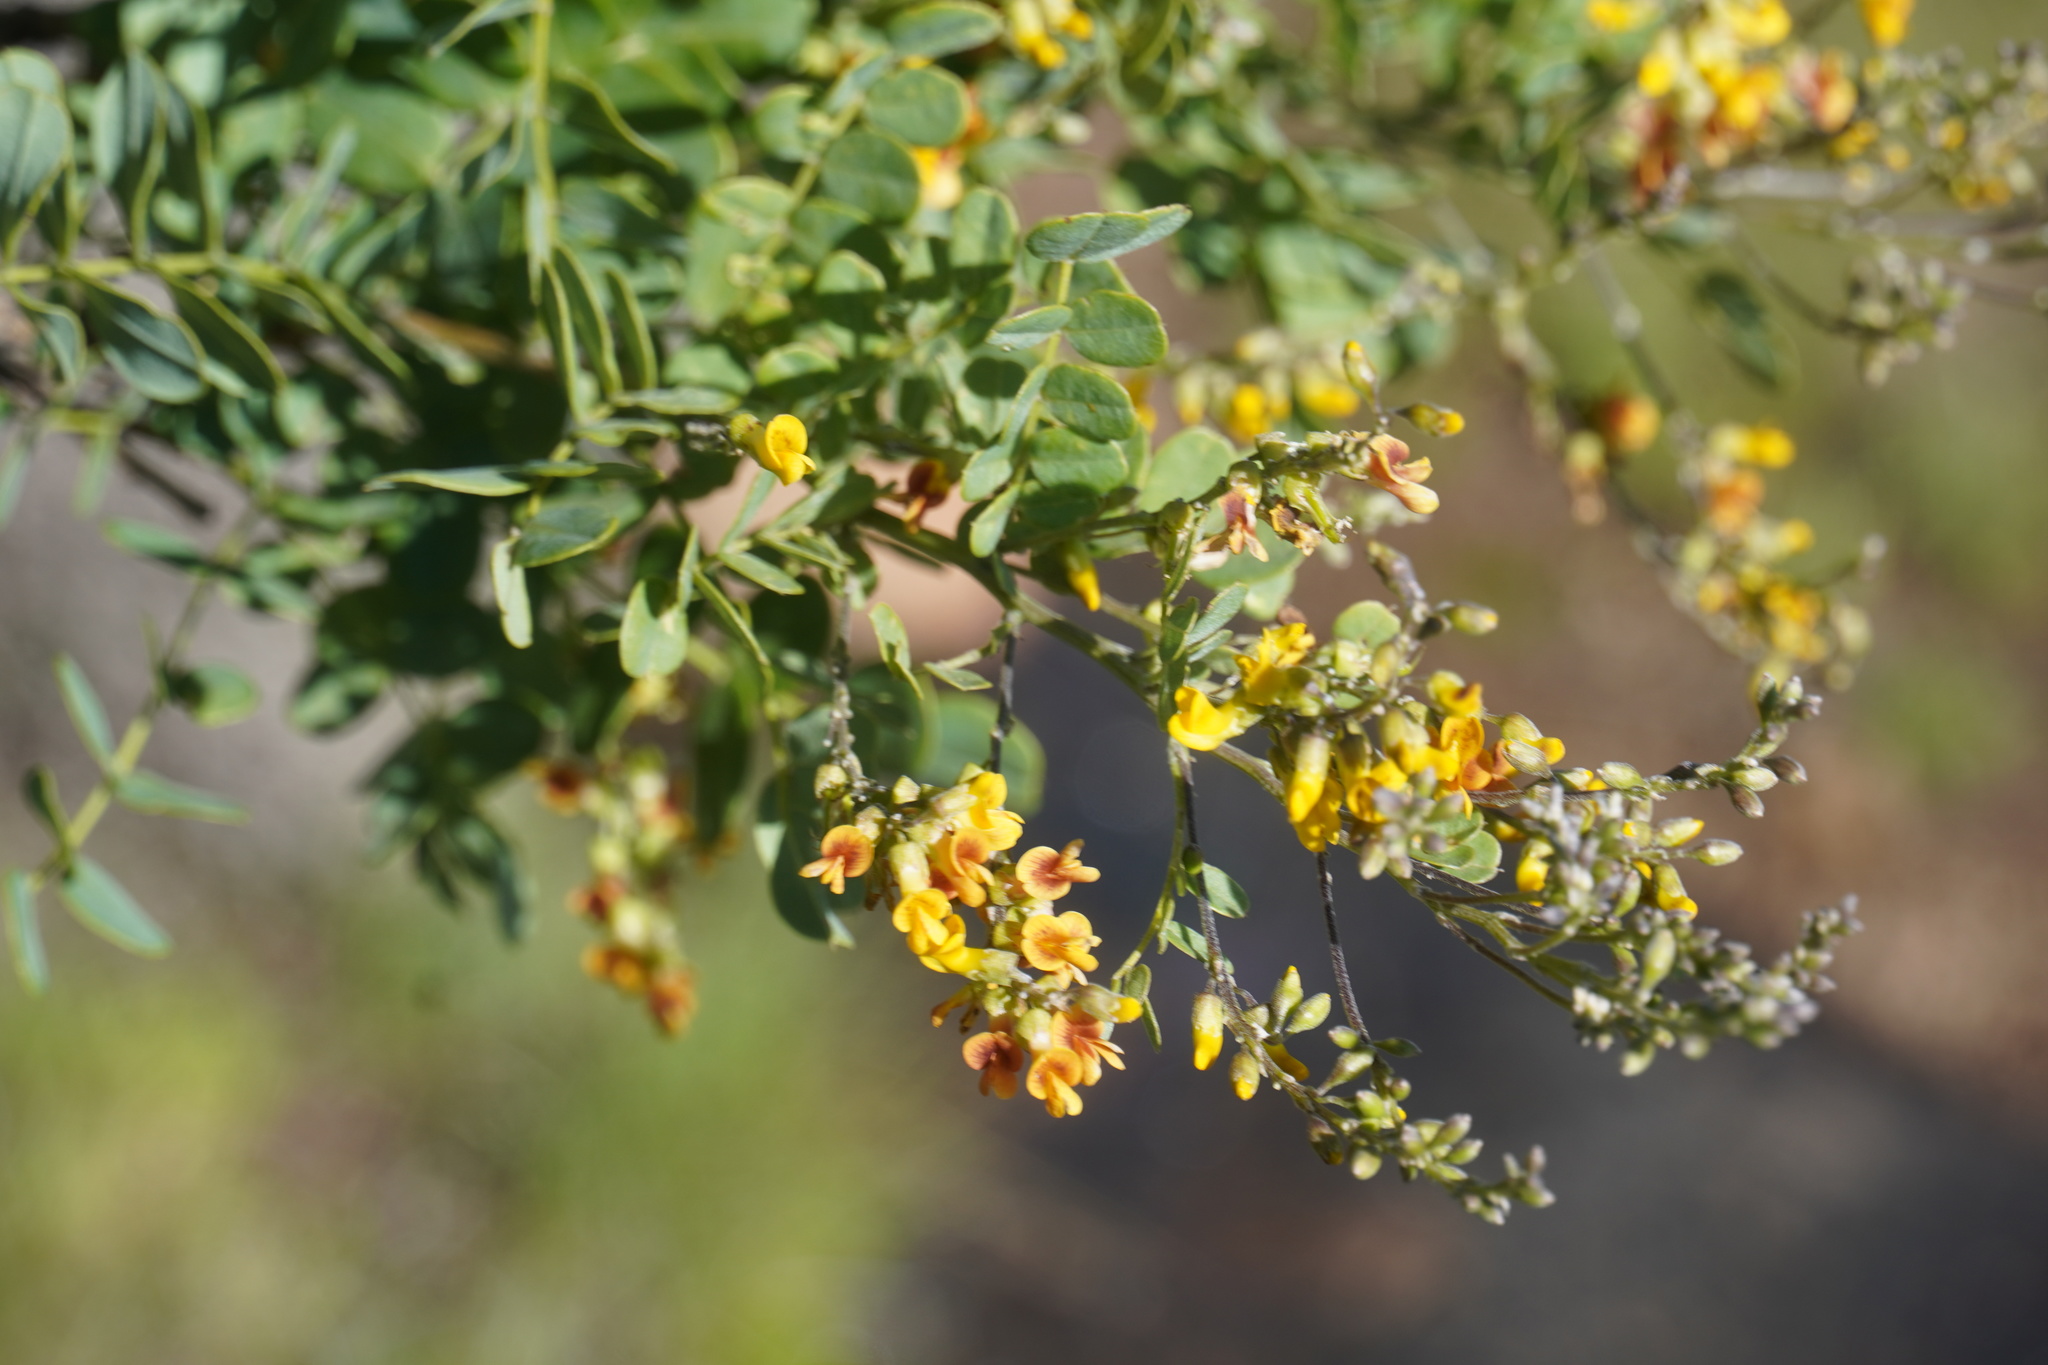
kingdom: Plantae
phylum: Tracheophyta
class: Magnoliopsida
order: Fabales
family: Fabaceae
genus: Calpurnia
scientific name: Calpurnia sericea
